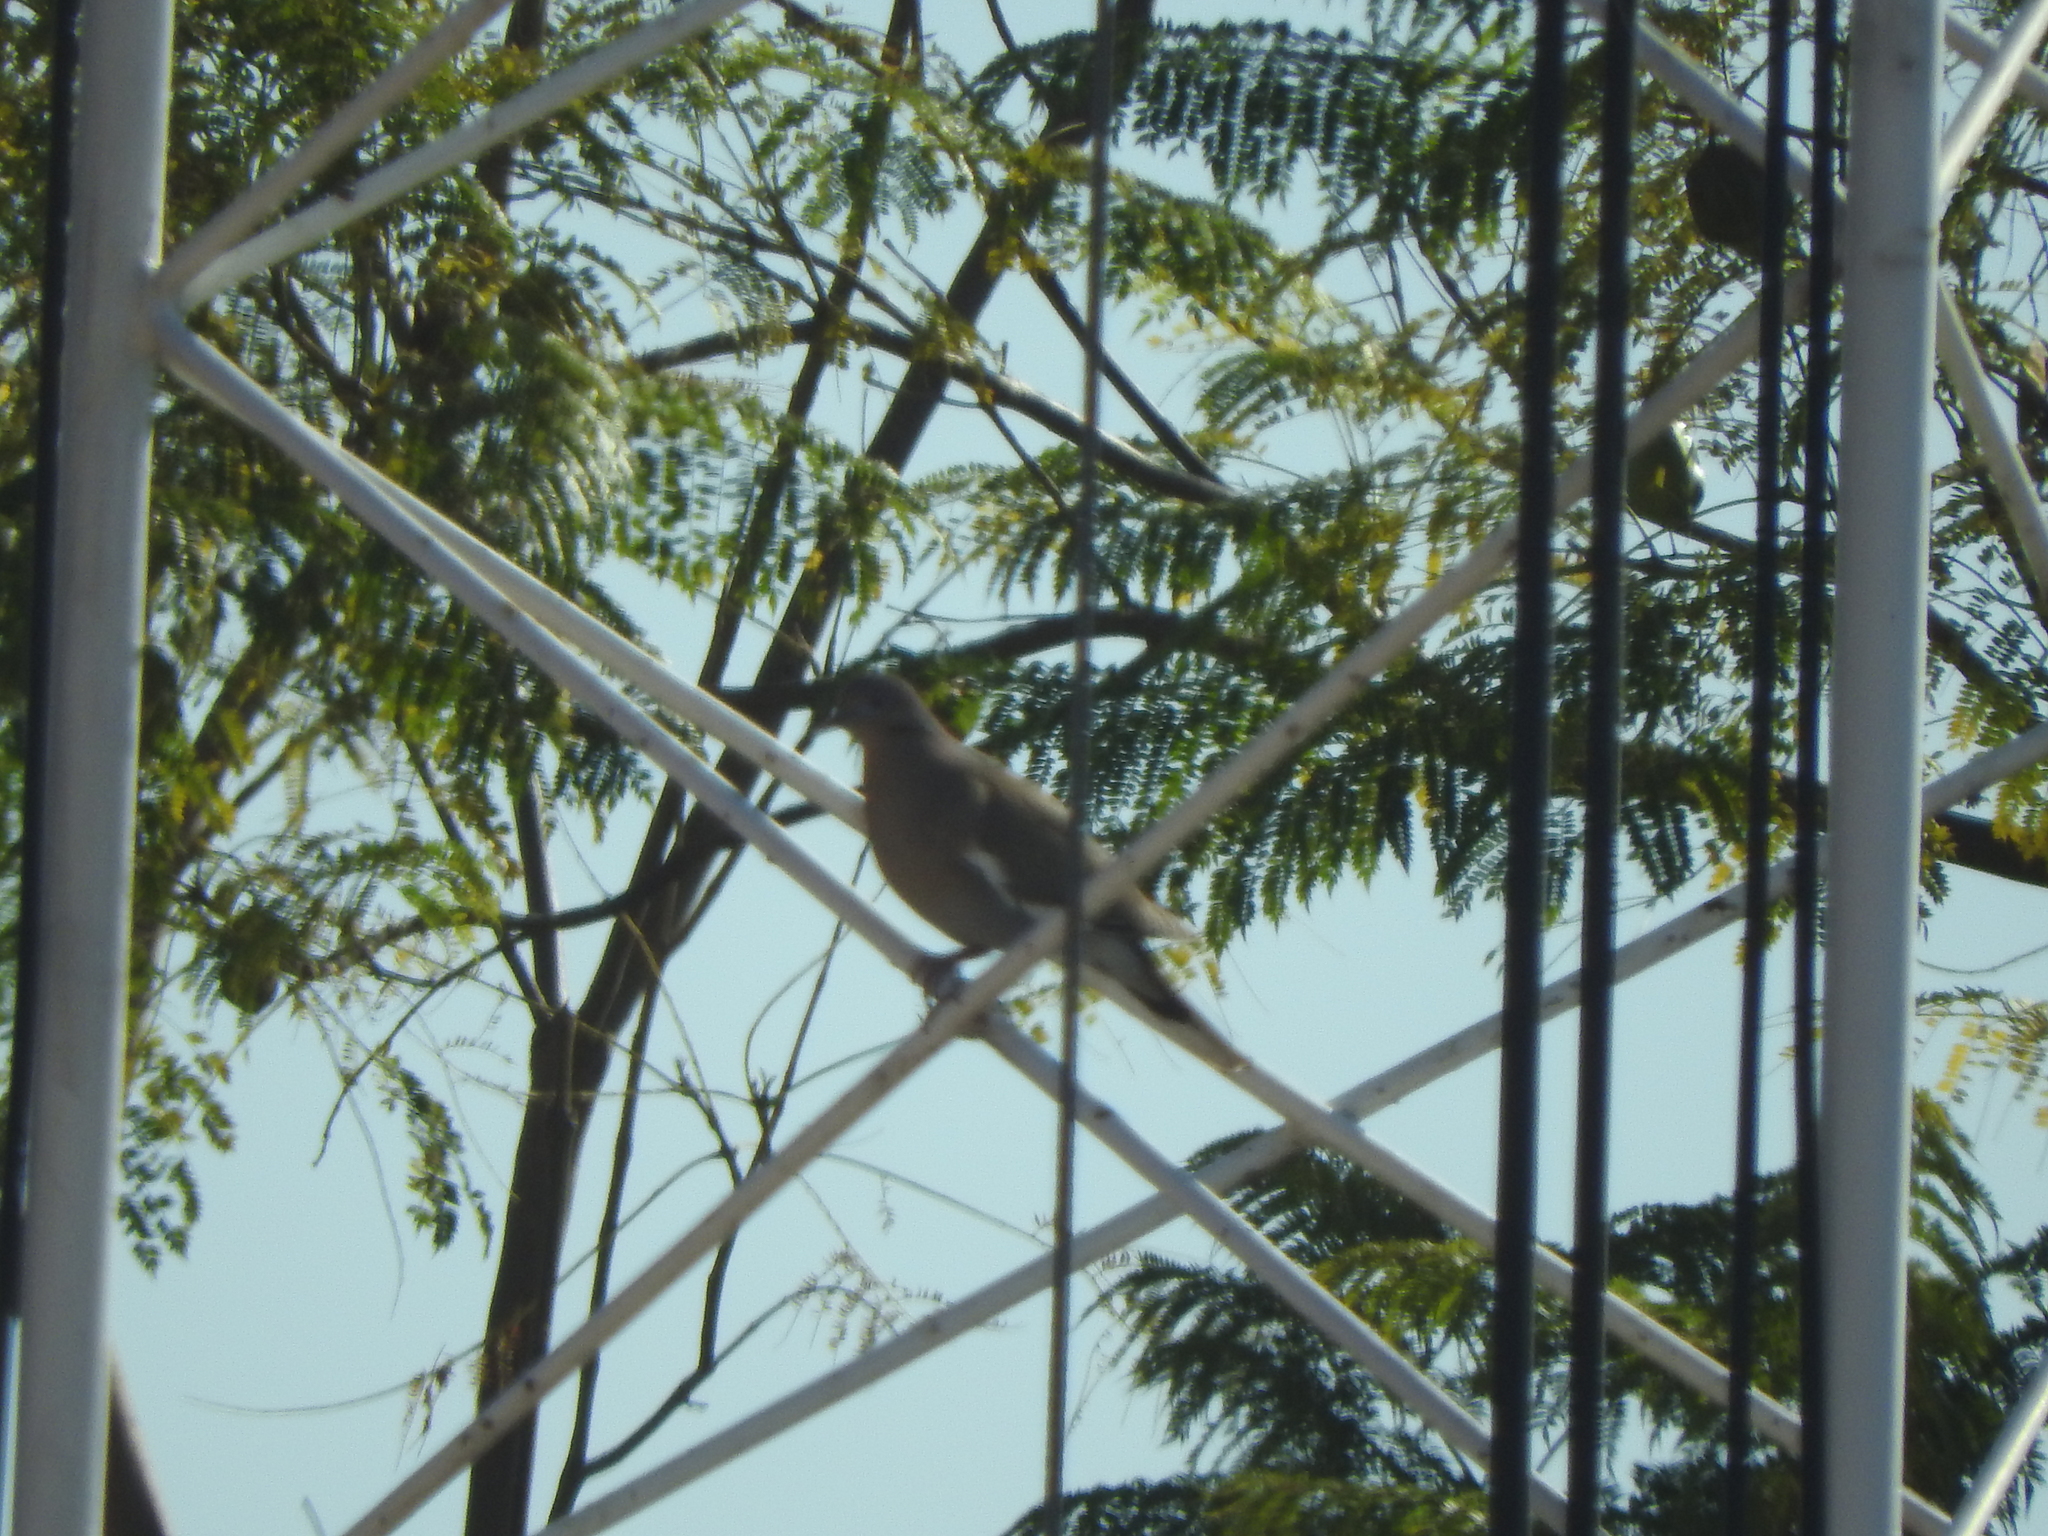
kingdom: Animalia
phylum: Chordata
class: Aves
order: Columbiformes
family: Columbidae
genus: Zenaida
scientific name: Zenaida asiatica
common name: White-winged dove
